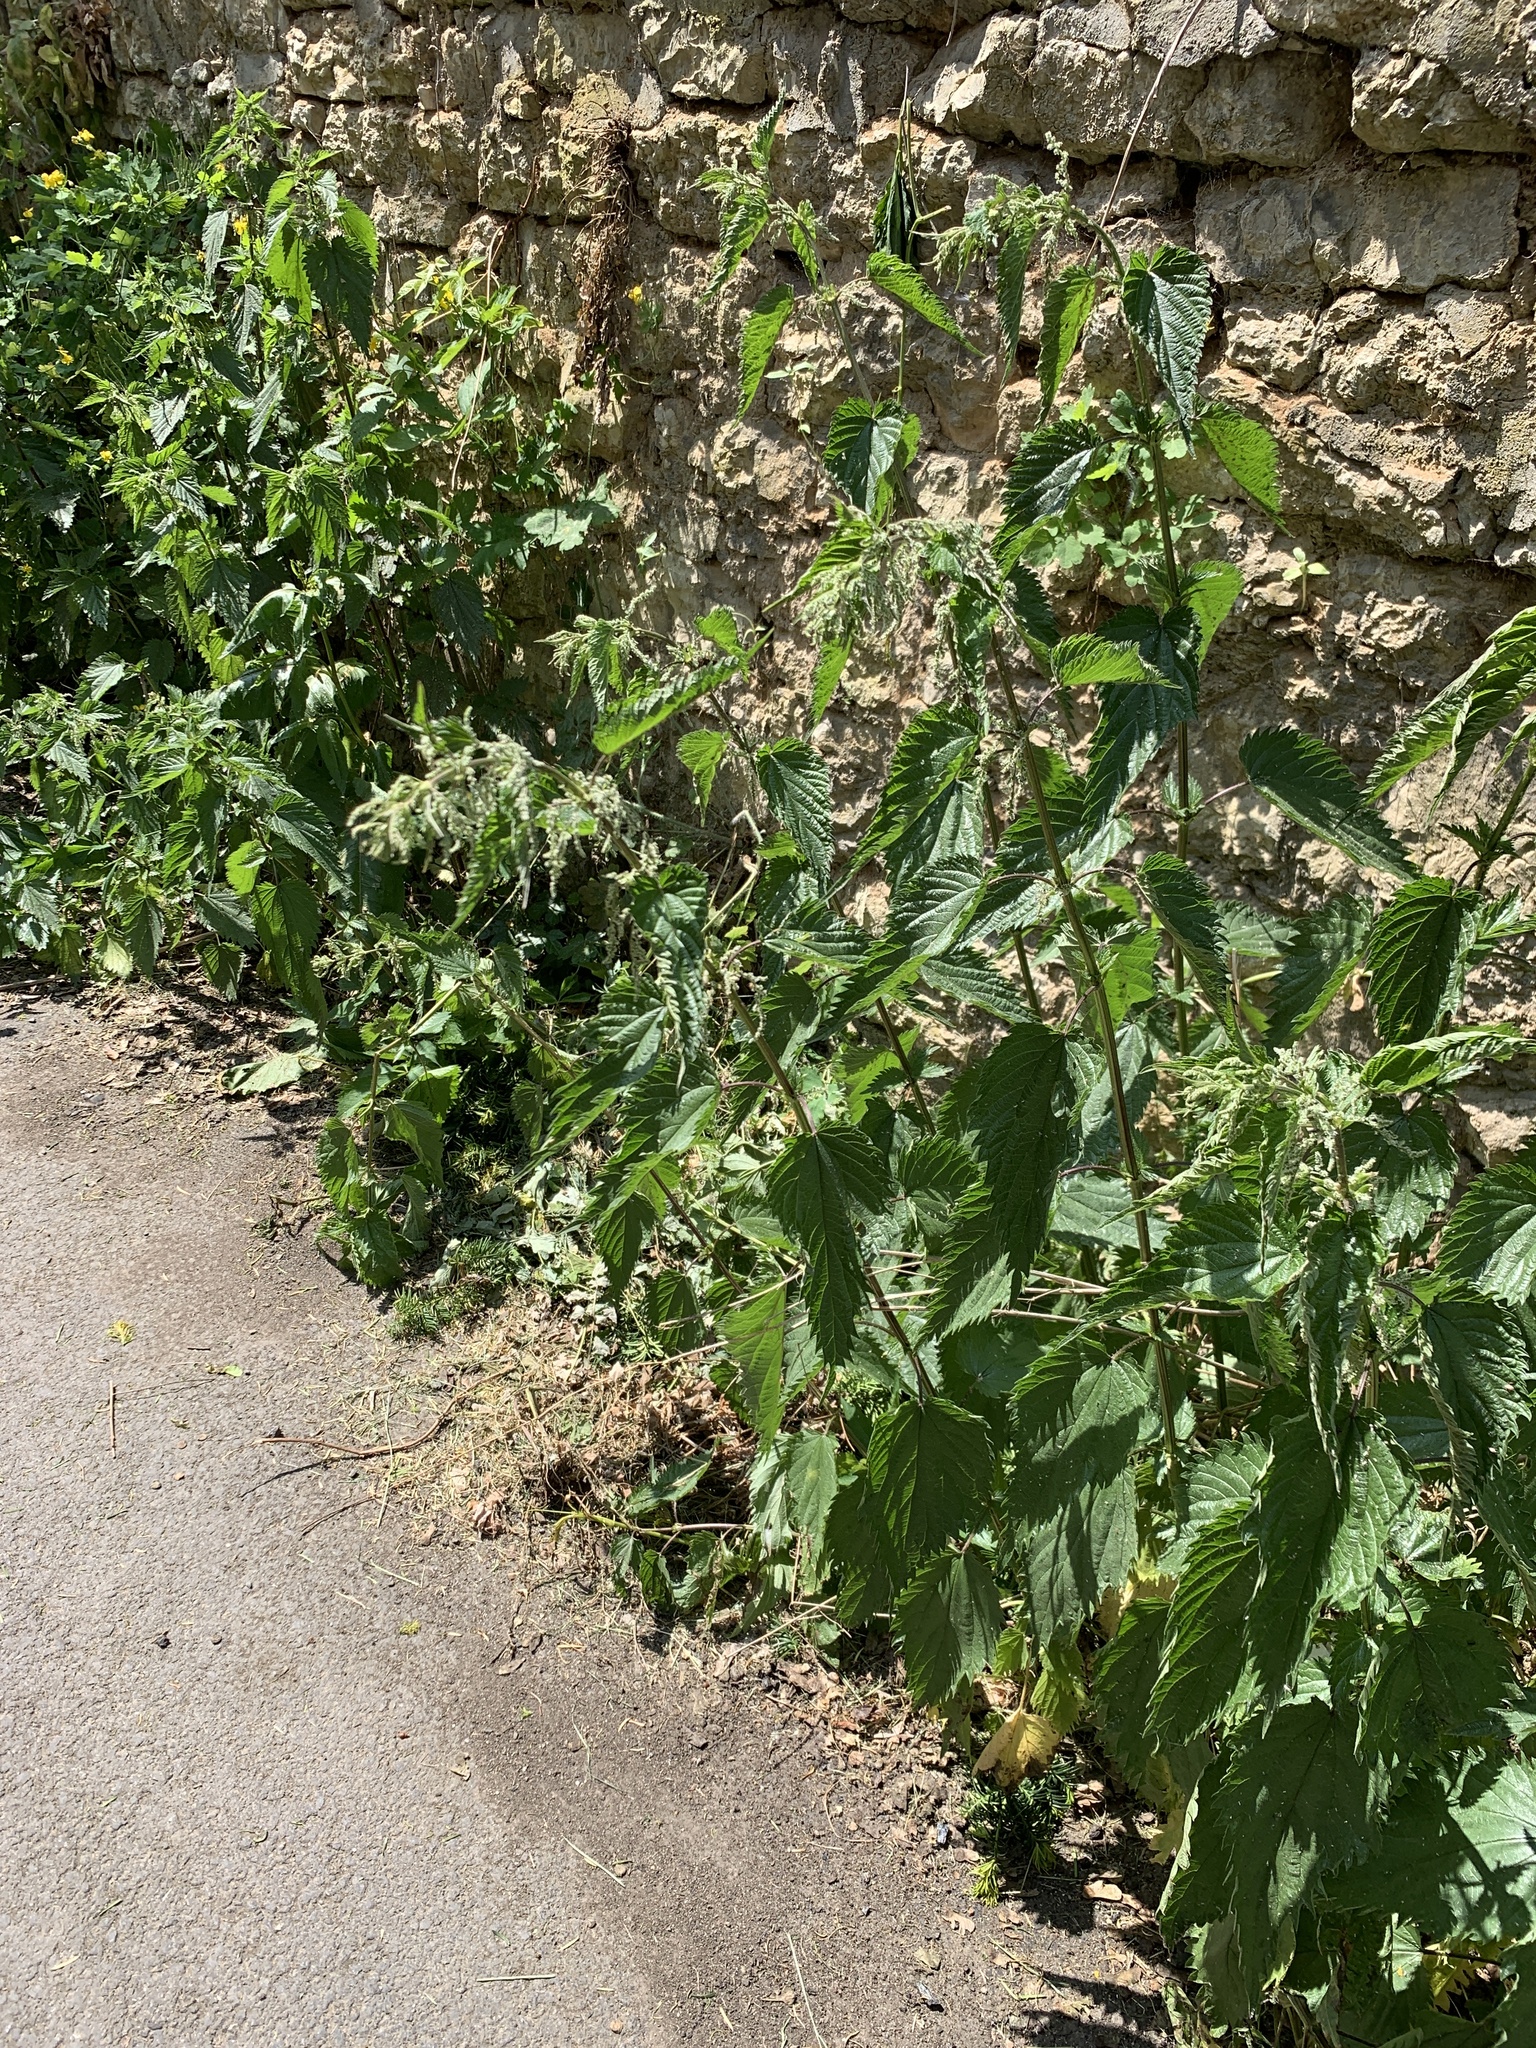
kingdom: Plantae
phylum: Tracheophyta
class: Magnoliopsida
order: Rosales
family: Urticaceae
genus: Urtica
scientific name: Urtica dioica
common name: Common nettle
